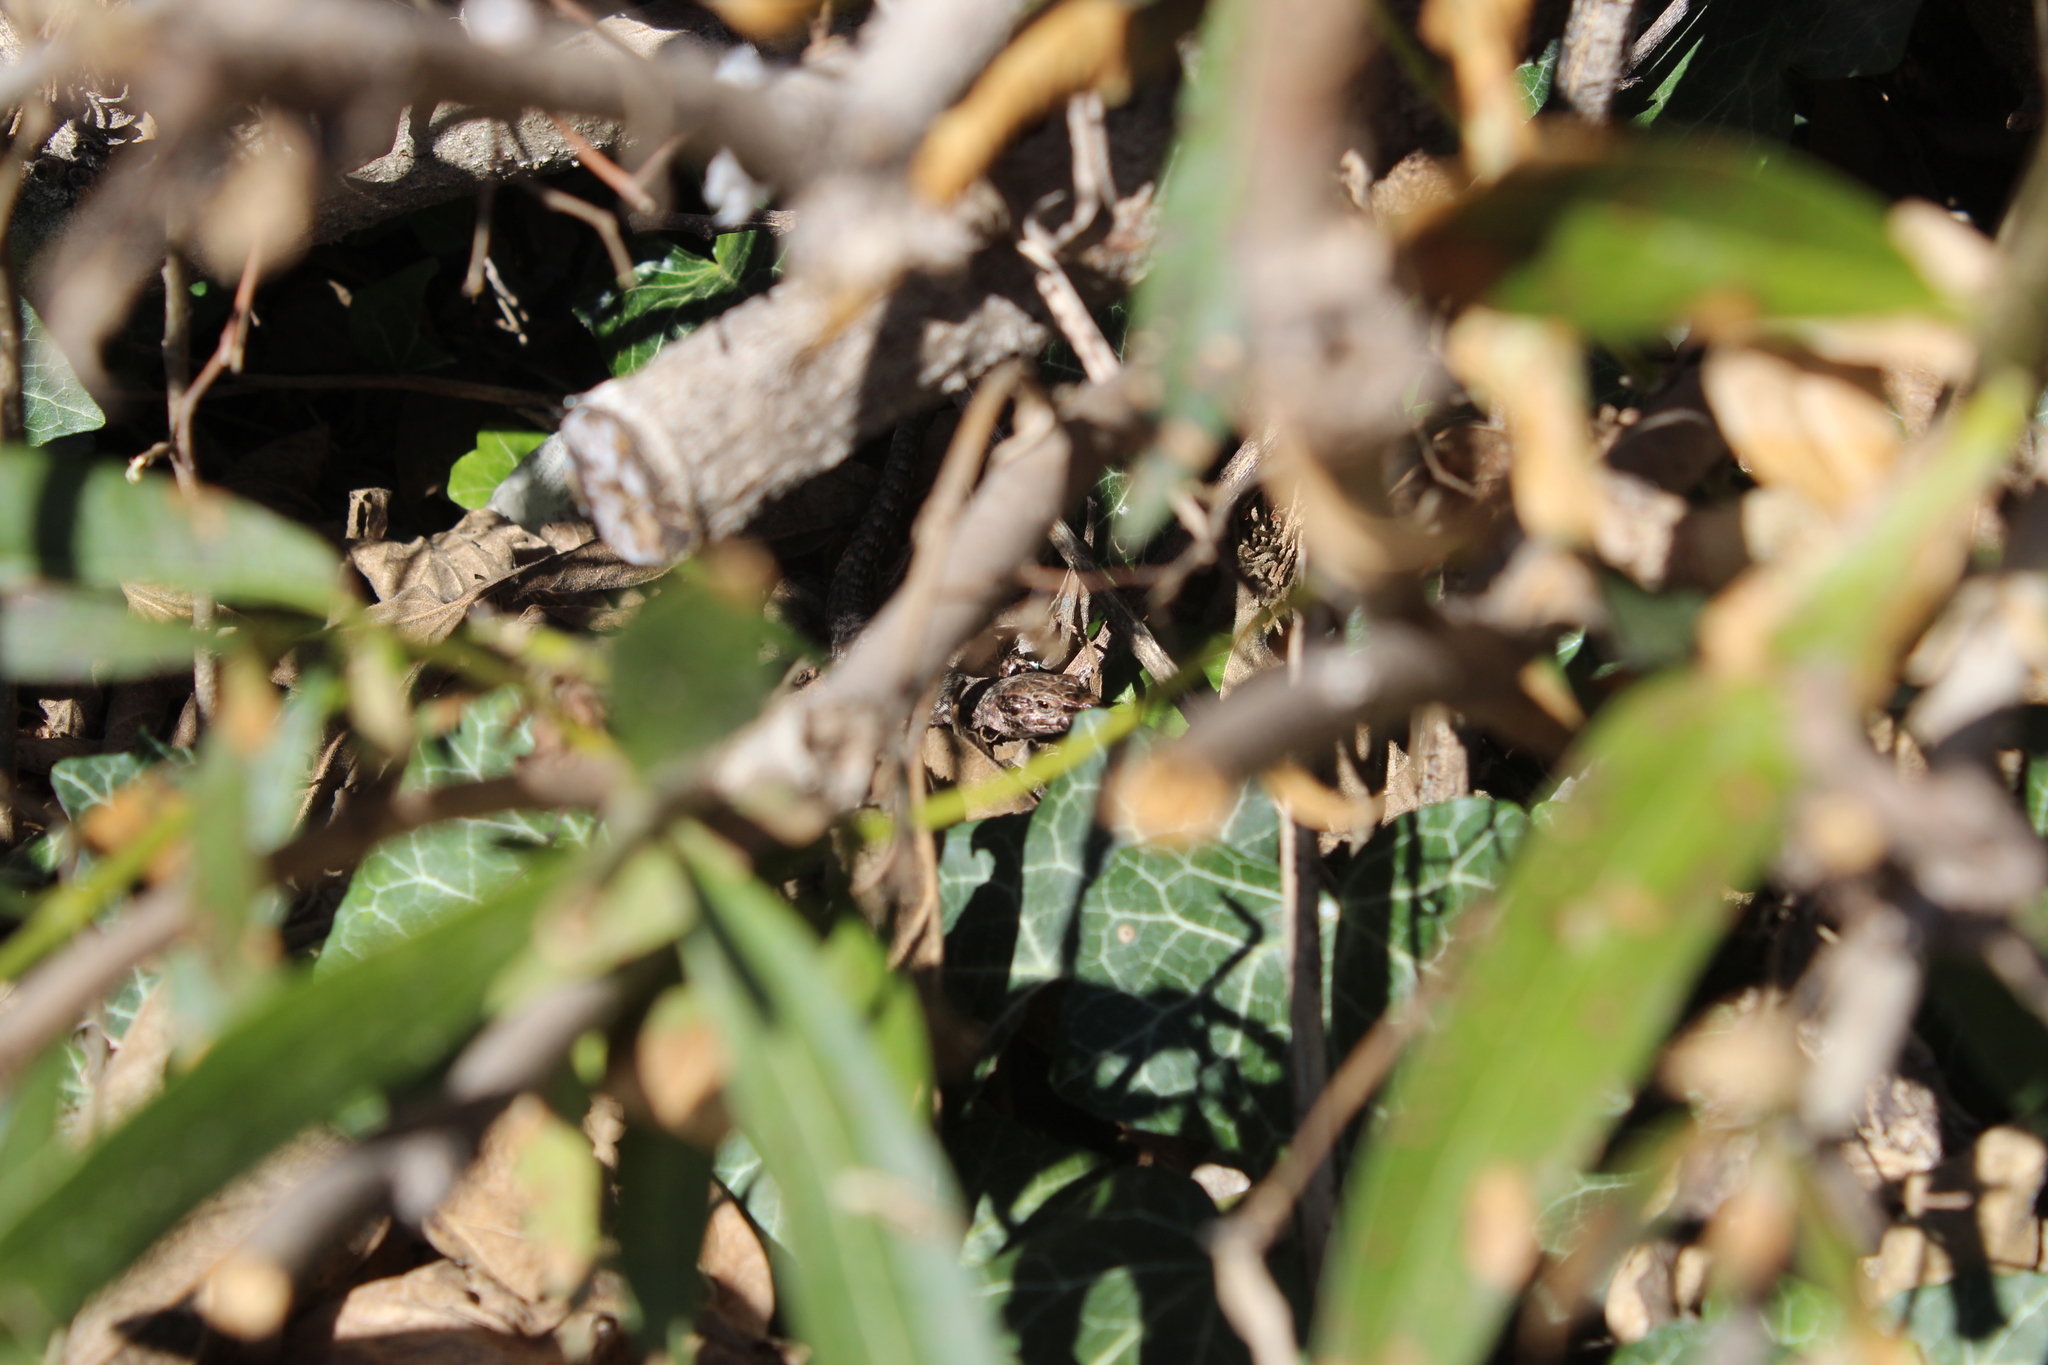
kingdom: Animalia
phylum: Chordata
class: Squamata
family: Lacertidae
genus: Podarcis
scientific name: Podarcis muralis
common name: Common wall lizard
